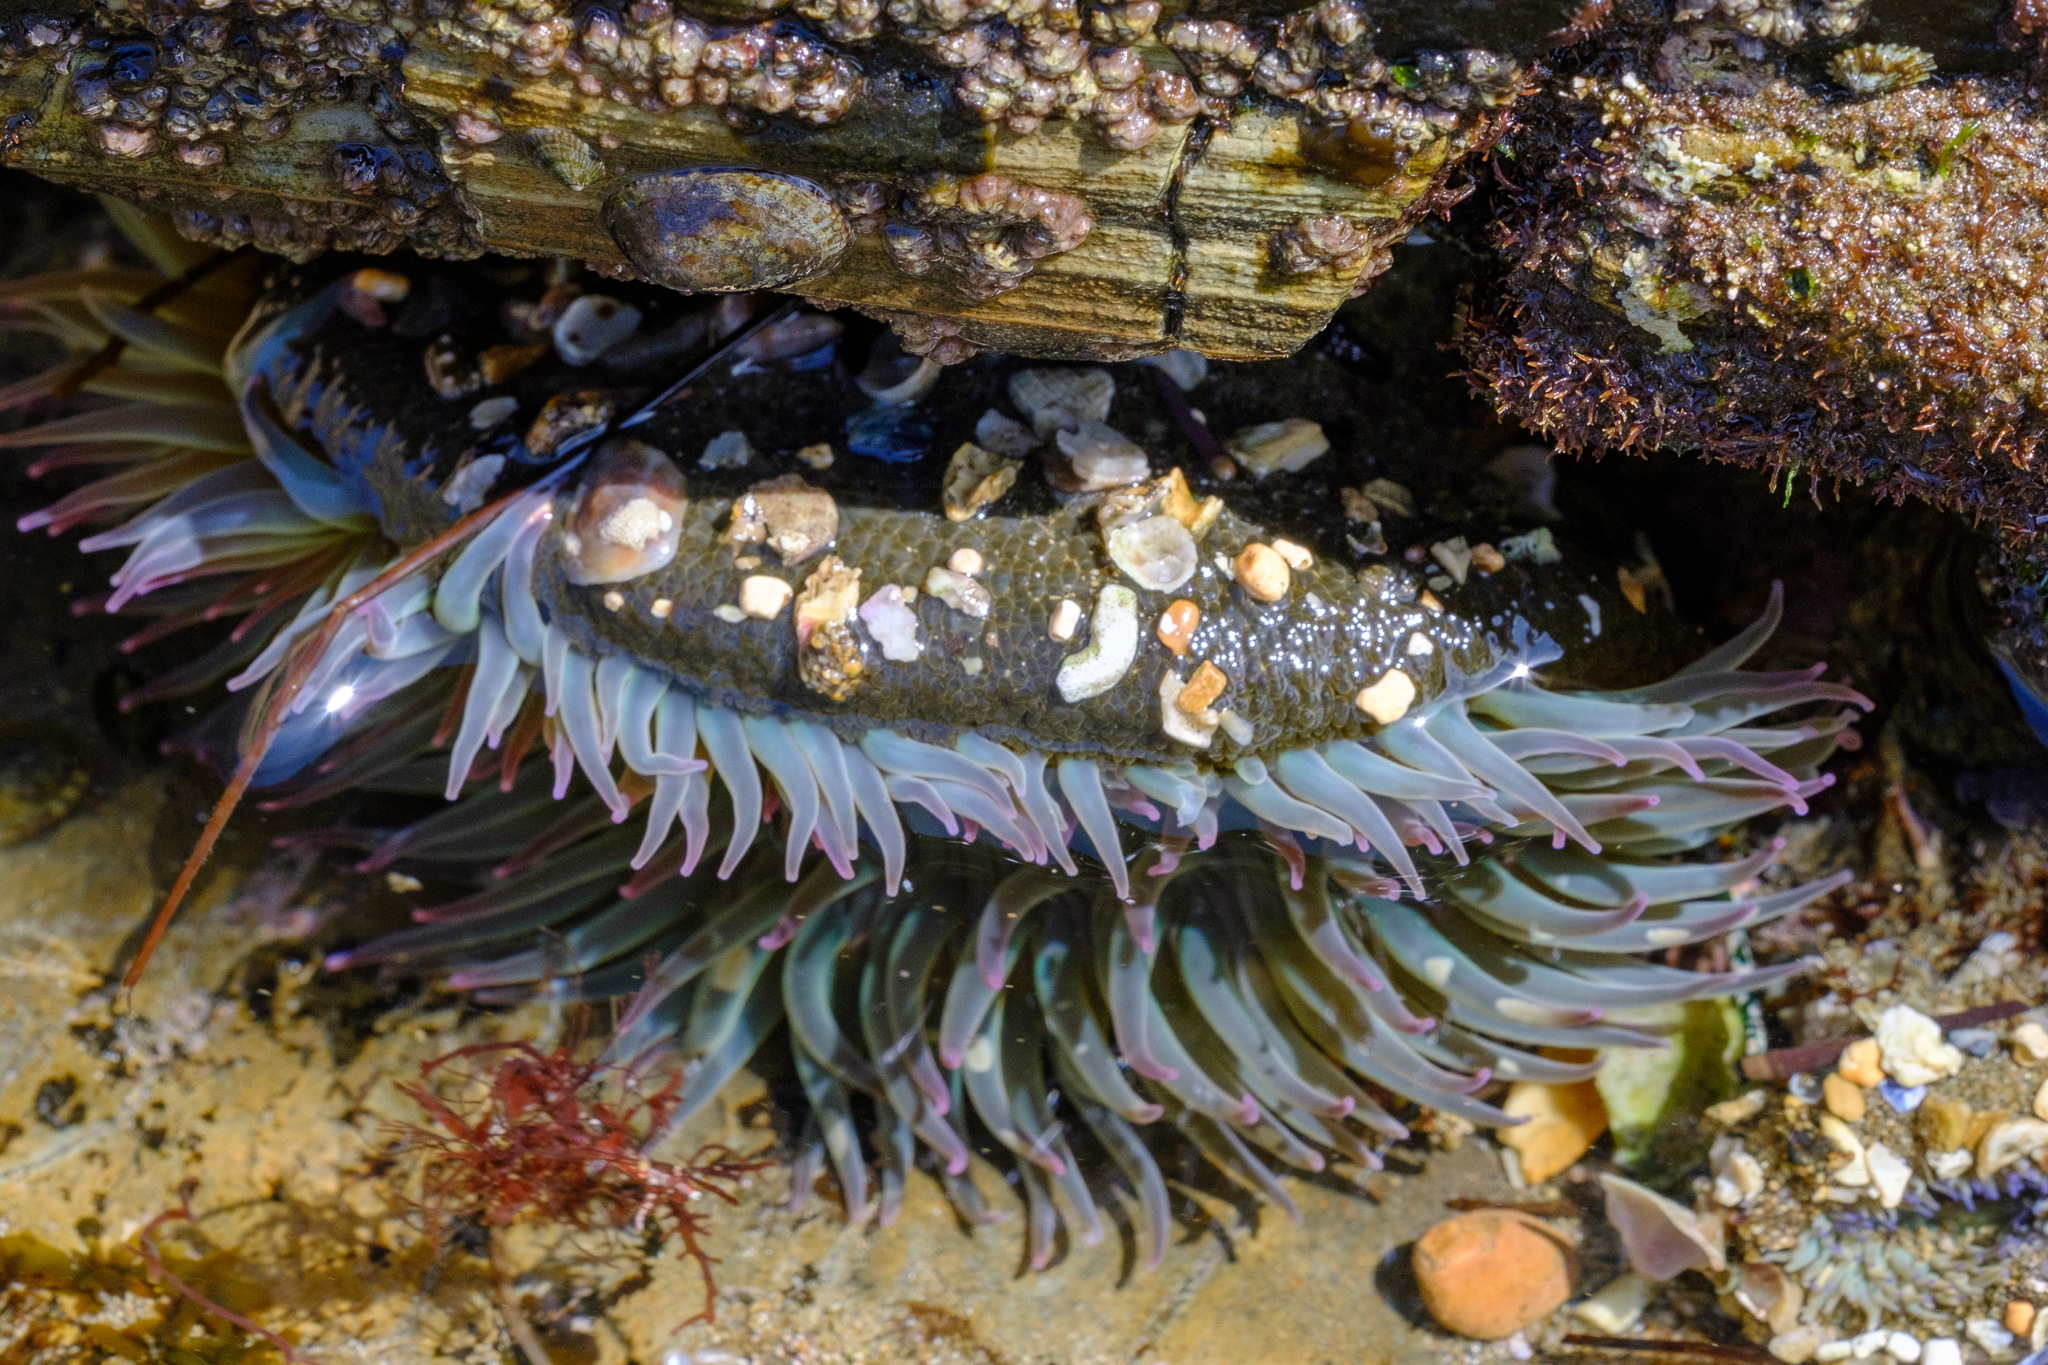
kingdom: Animalia
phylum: Cnidaria
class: Anthozoa
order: Actiniaria
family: Actiniidae
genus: Anthopleura
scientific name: Anthopleura sola
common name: Sun anemone
